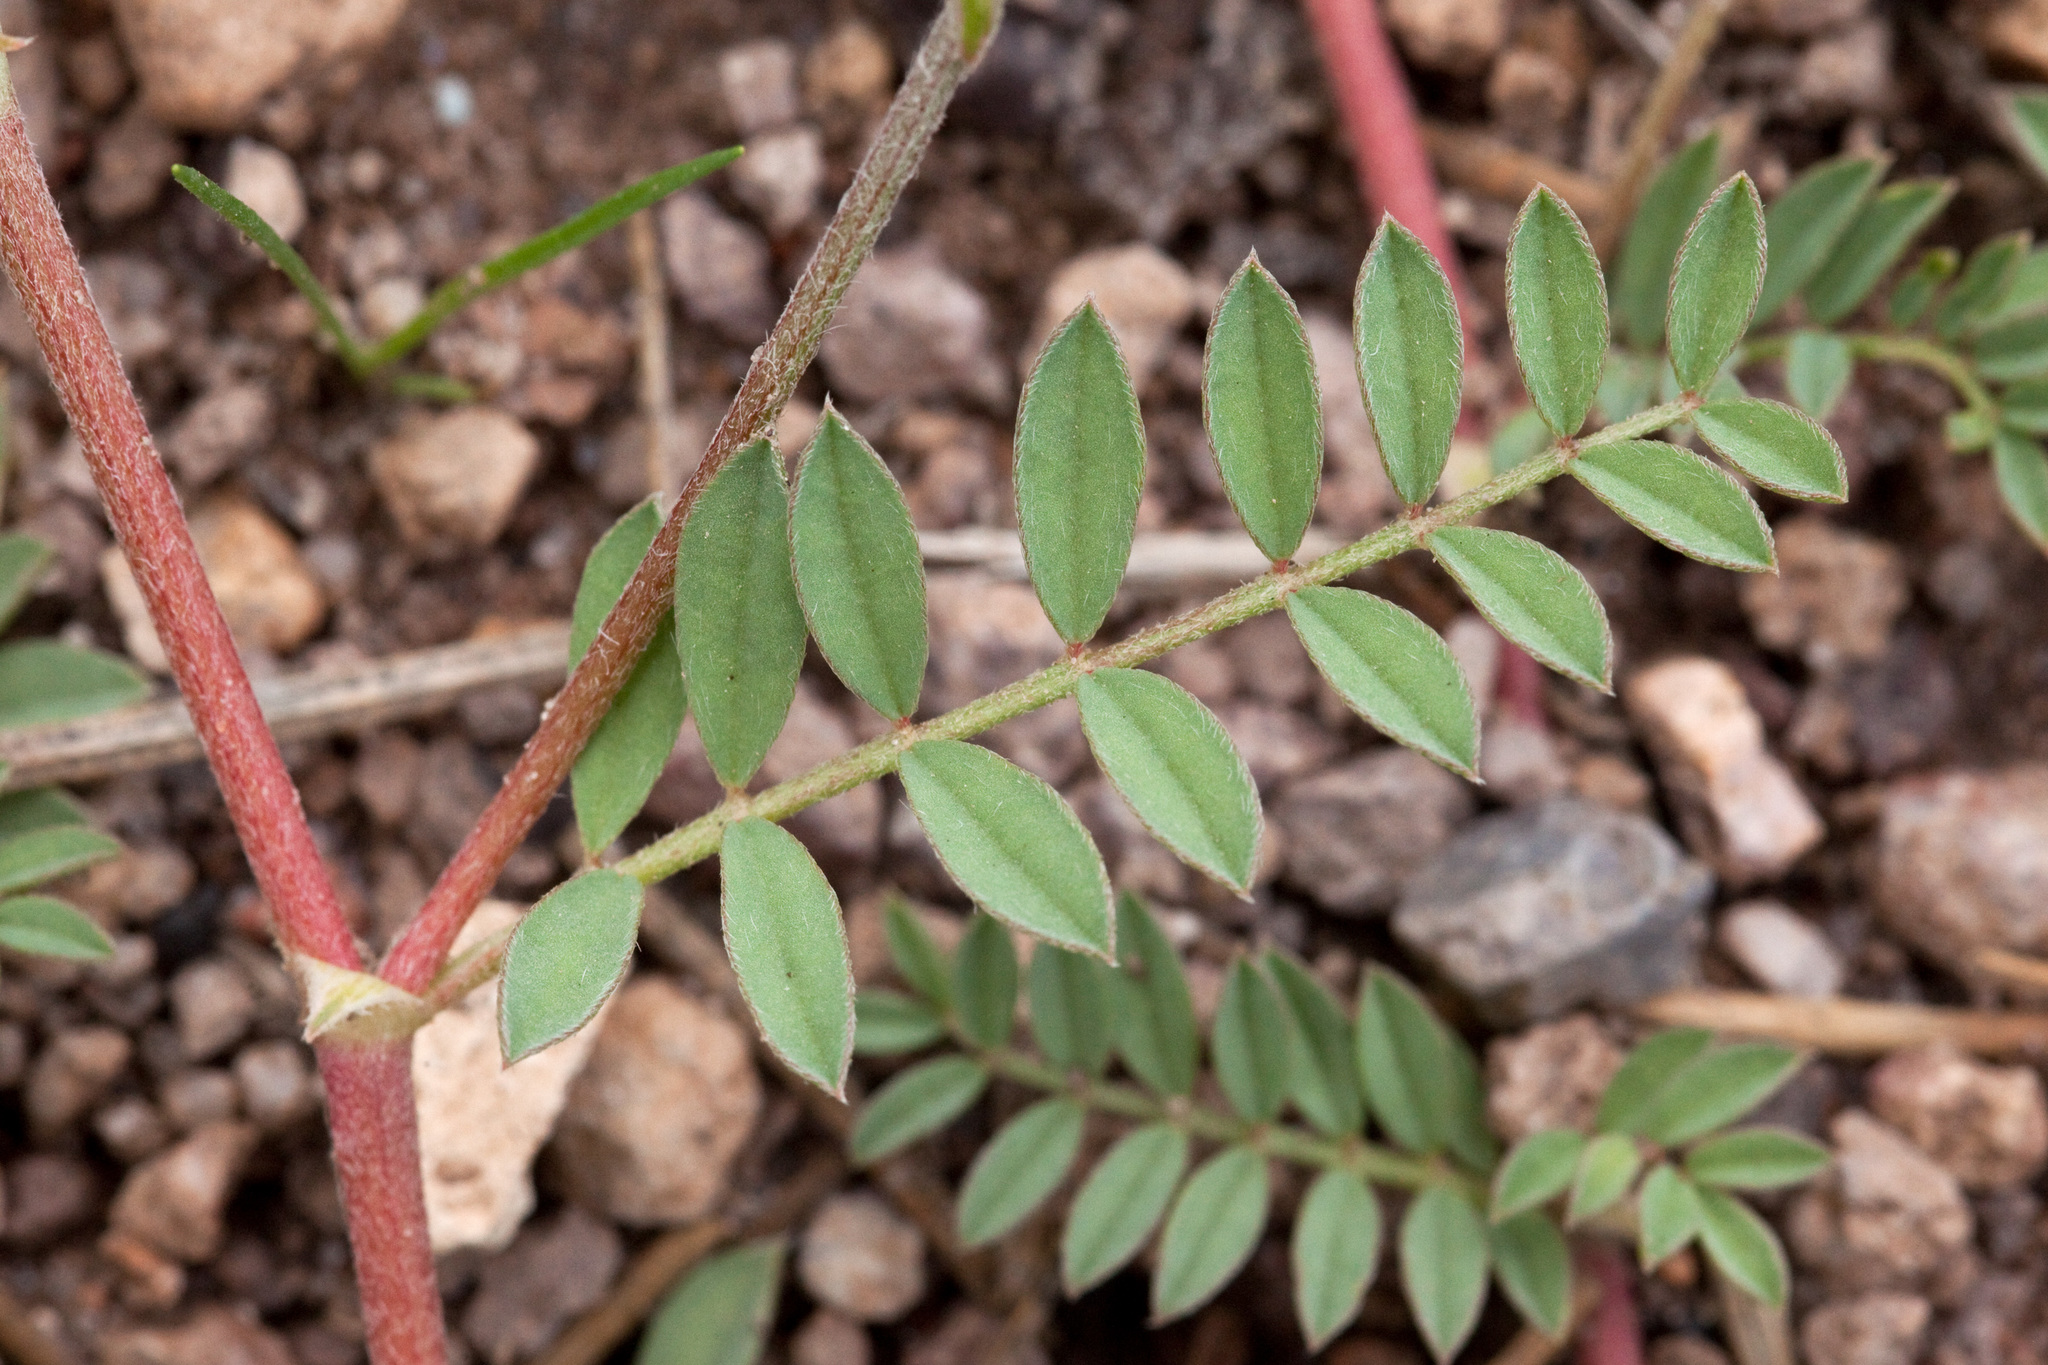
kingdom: Plantae
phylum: Tracheophyta
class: Magnoliopsida
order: Fabales
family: Fabaceae
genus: Astragalus
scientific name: Astragalus humistratus
